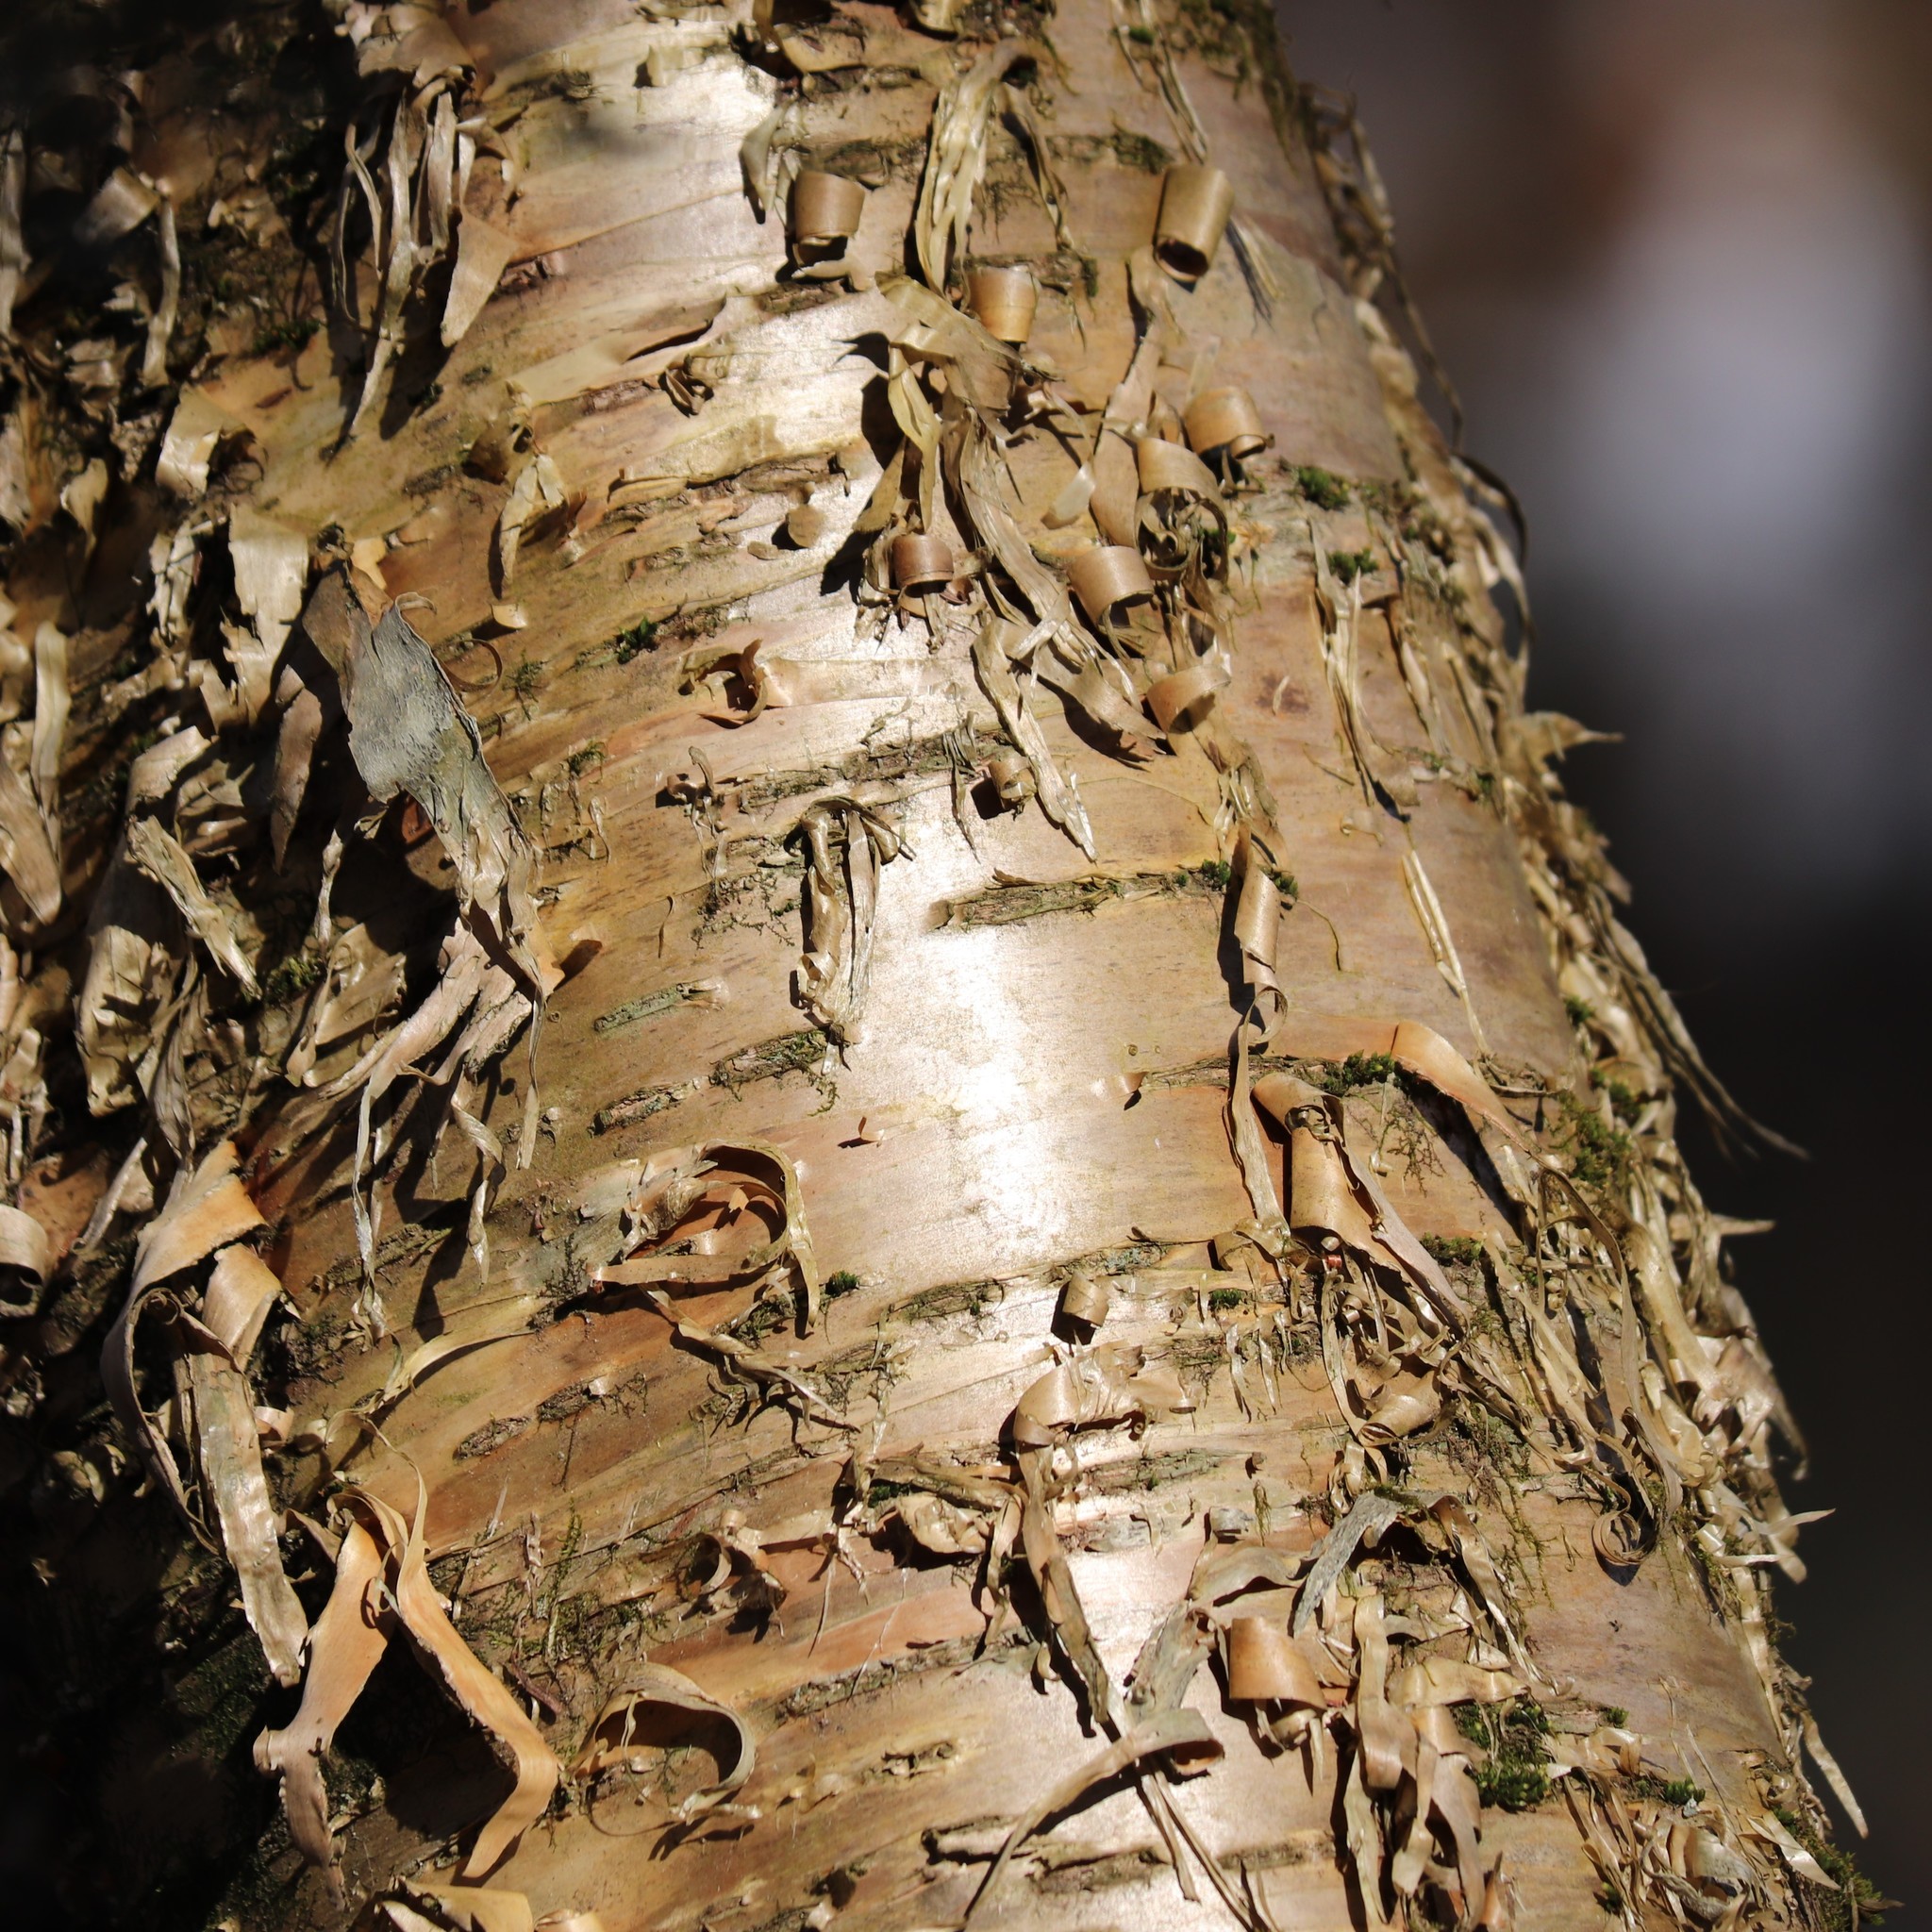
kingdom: Plantae
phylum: Tracheophyta
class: Magnoliopsida
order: Fagales
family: Betulaceae
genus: Betula
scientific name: Betula alleghaniensis
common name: Yellow birch
